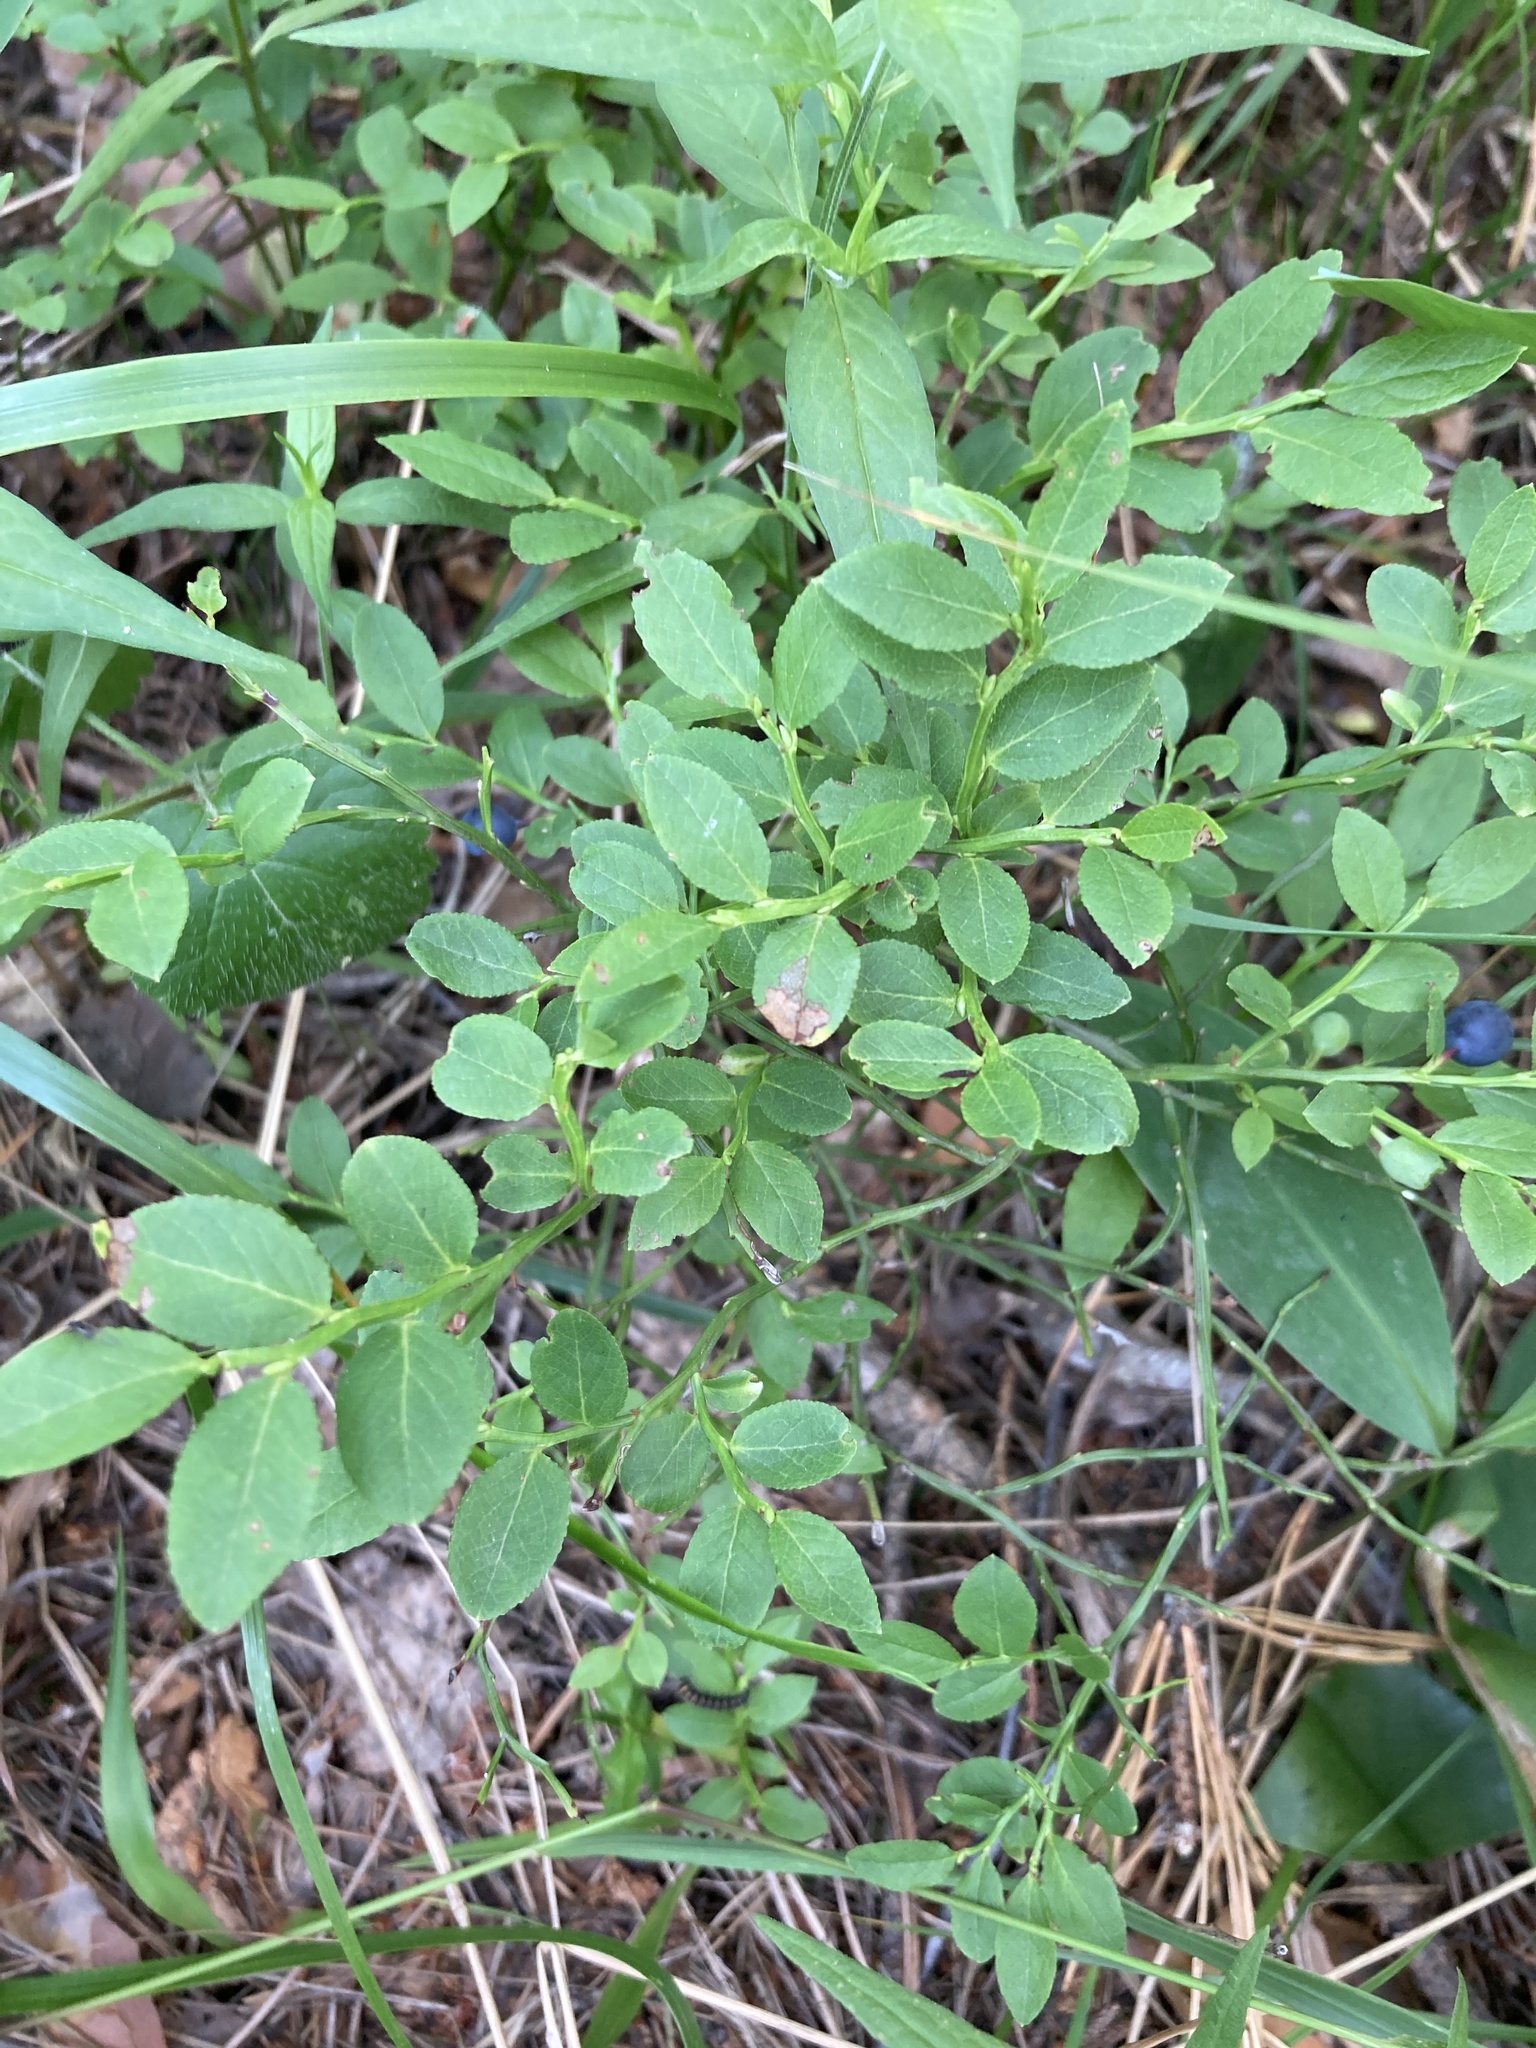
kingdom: Plantae
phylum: Tracheophyta
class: Magnoliopsida
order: Ericales
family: Ericaceae
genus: Vaccinium
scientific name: Vaccinium myrtillus
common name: Bilberry
